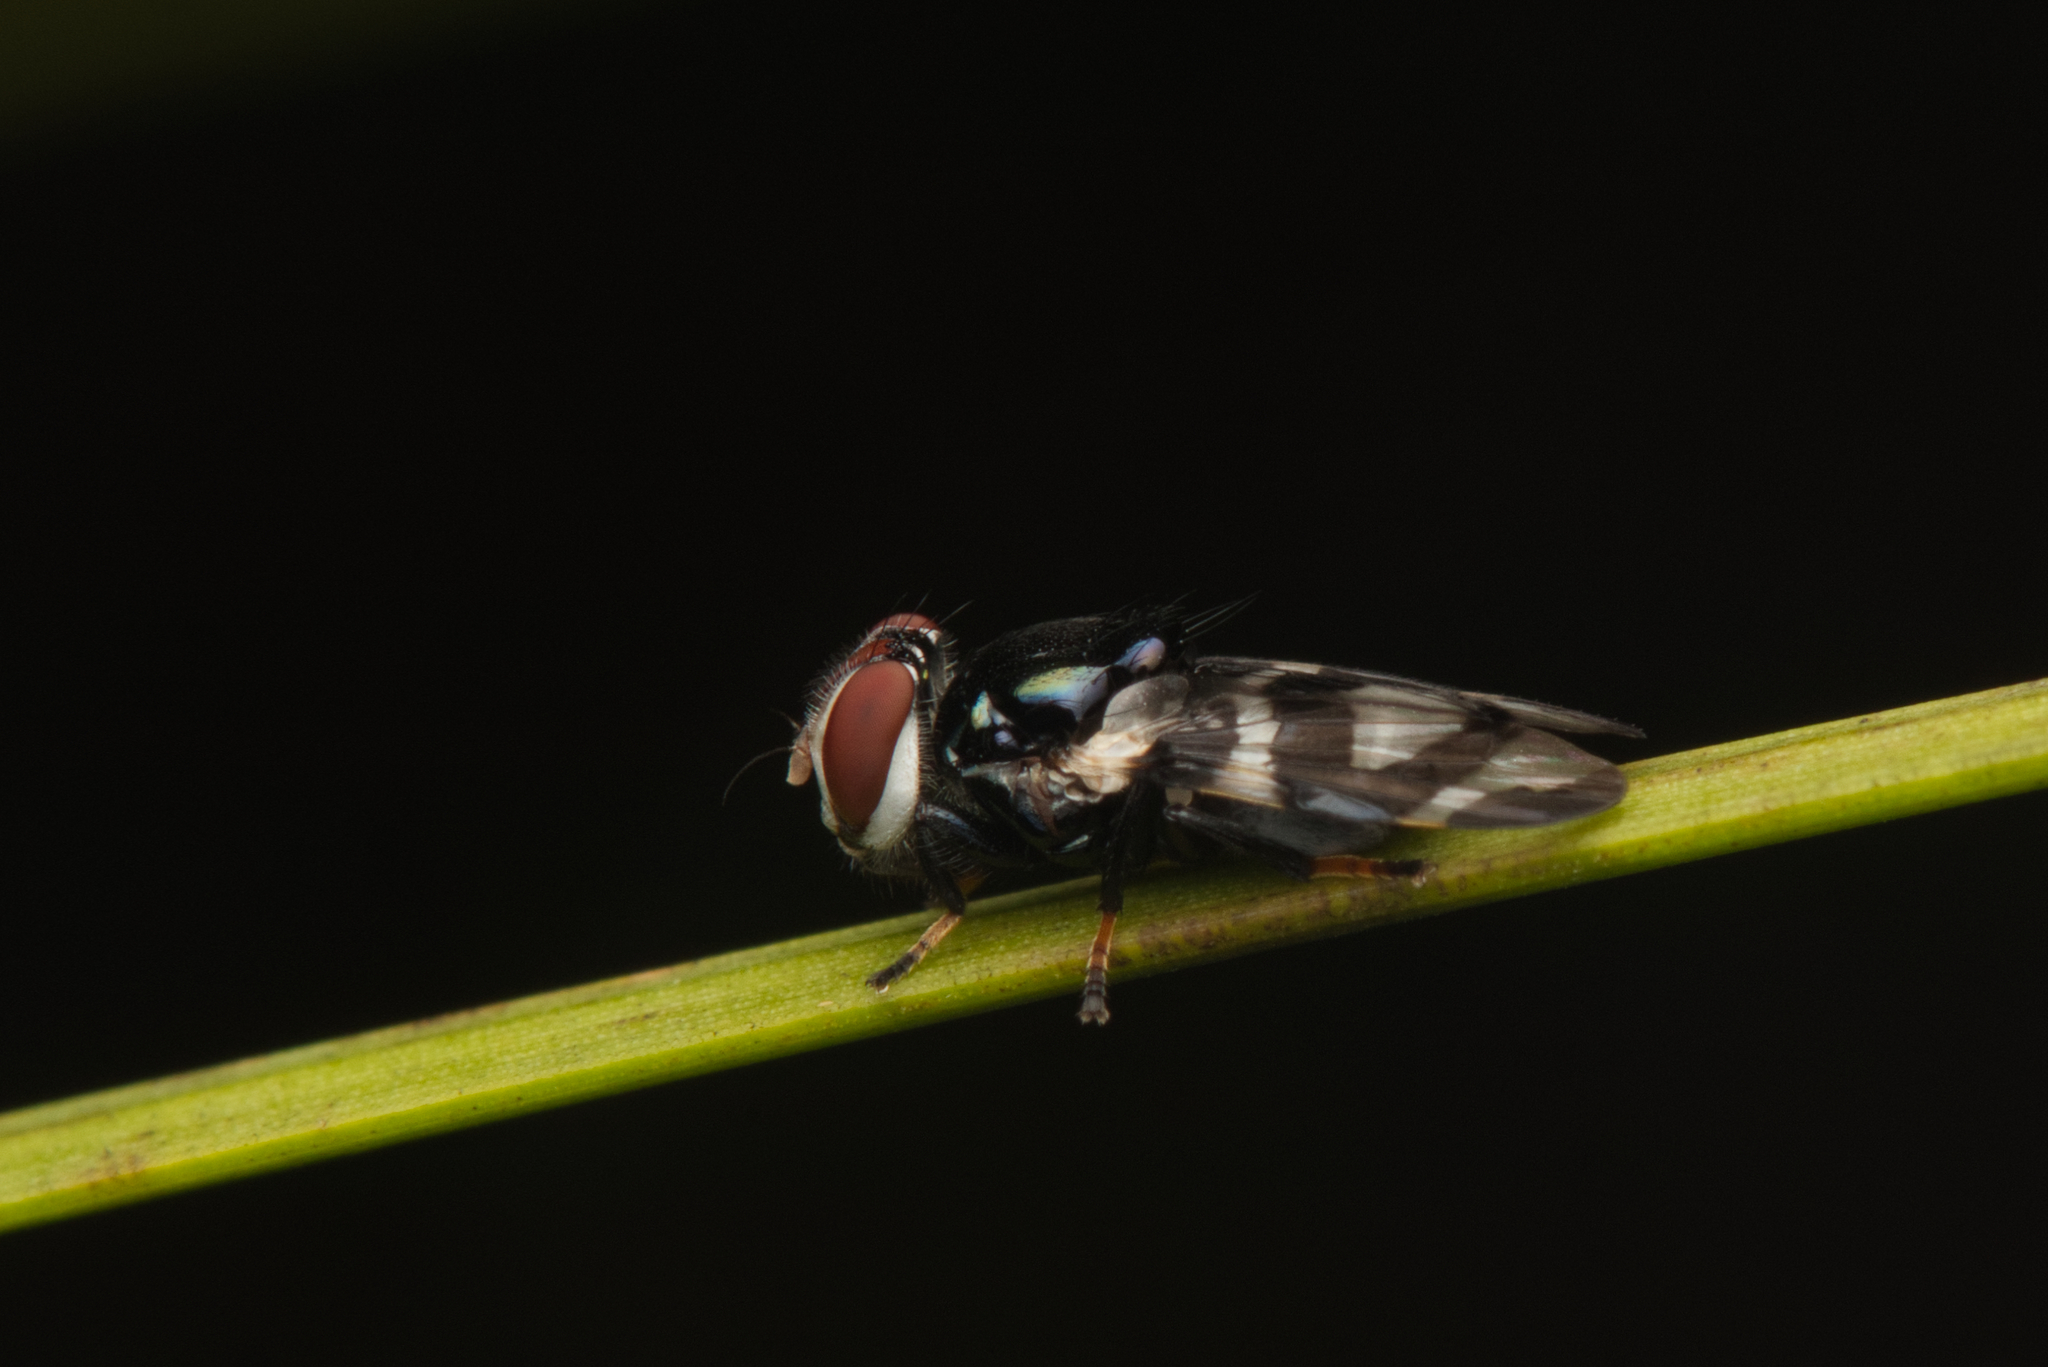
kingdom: Animalia
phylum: Arthropoda
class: Insecta
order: Diptera
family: Platystomatidae
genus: Lenophila
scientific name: Lenophila secta
